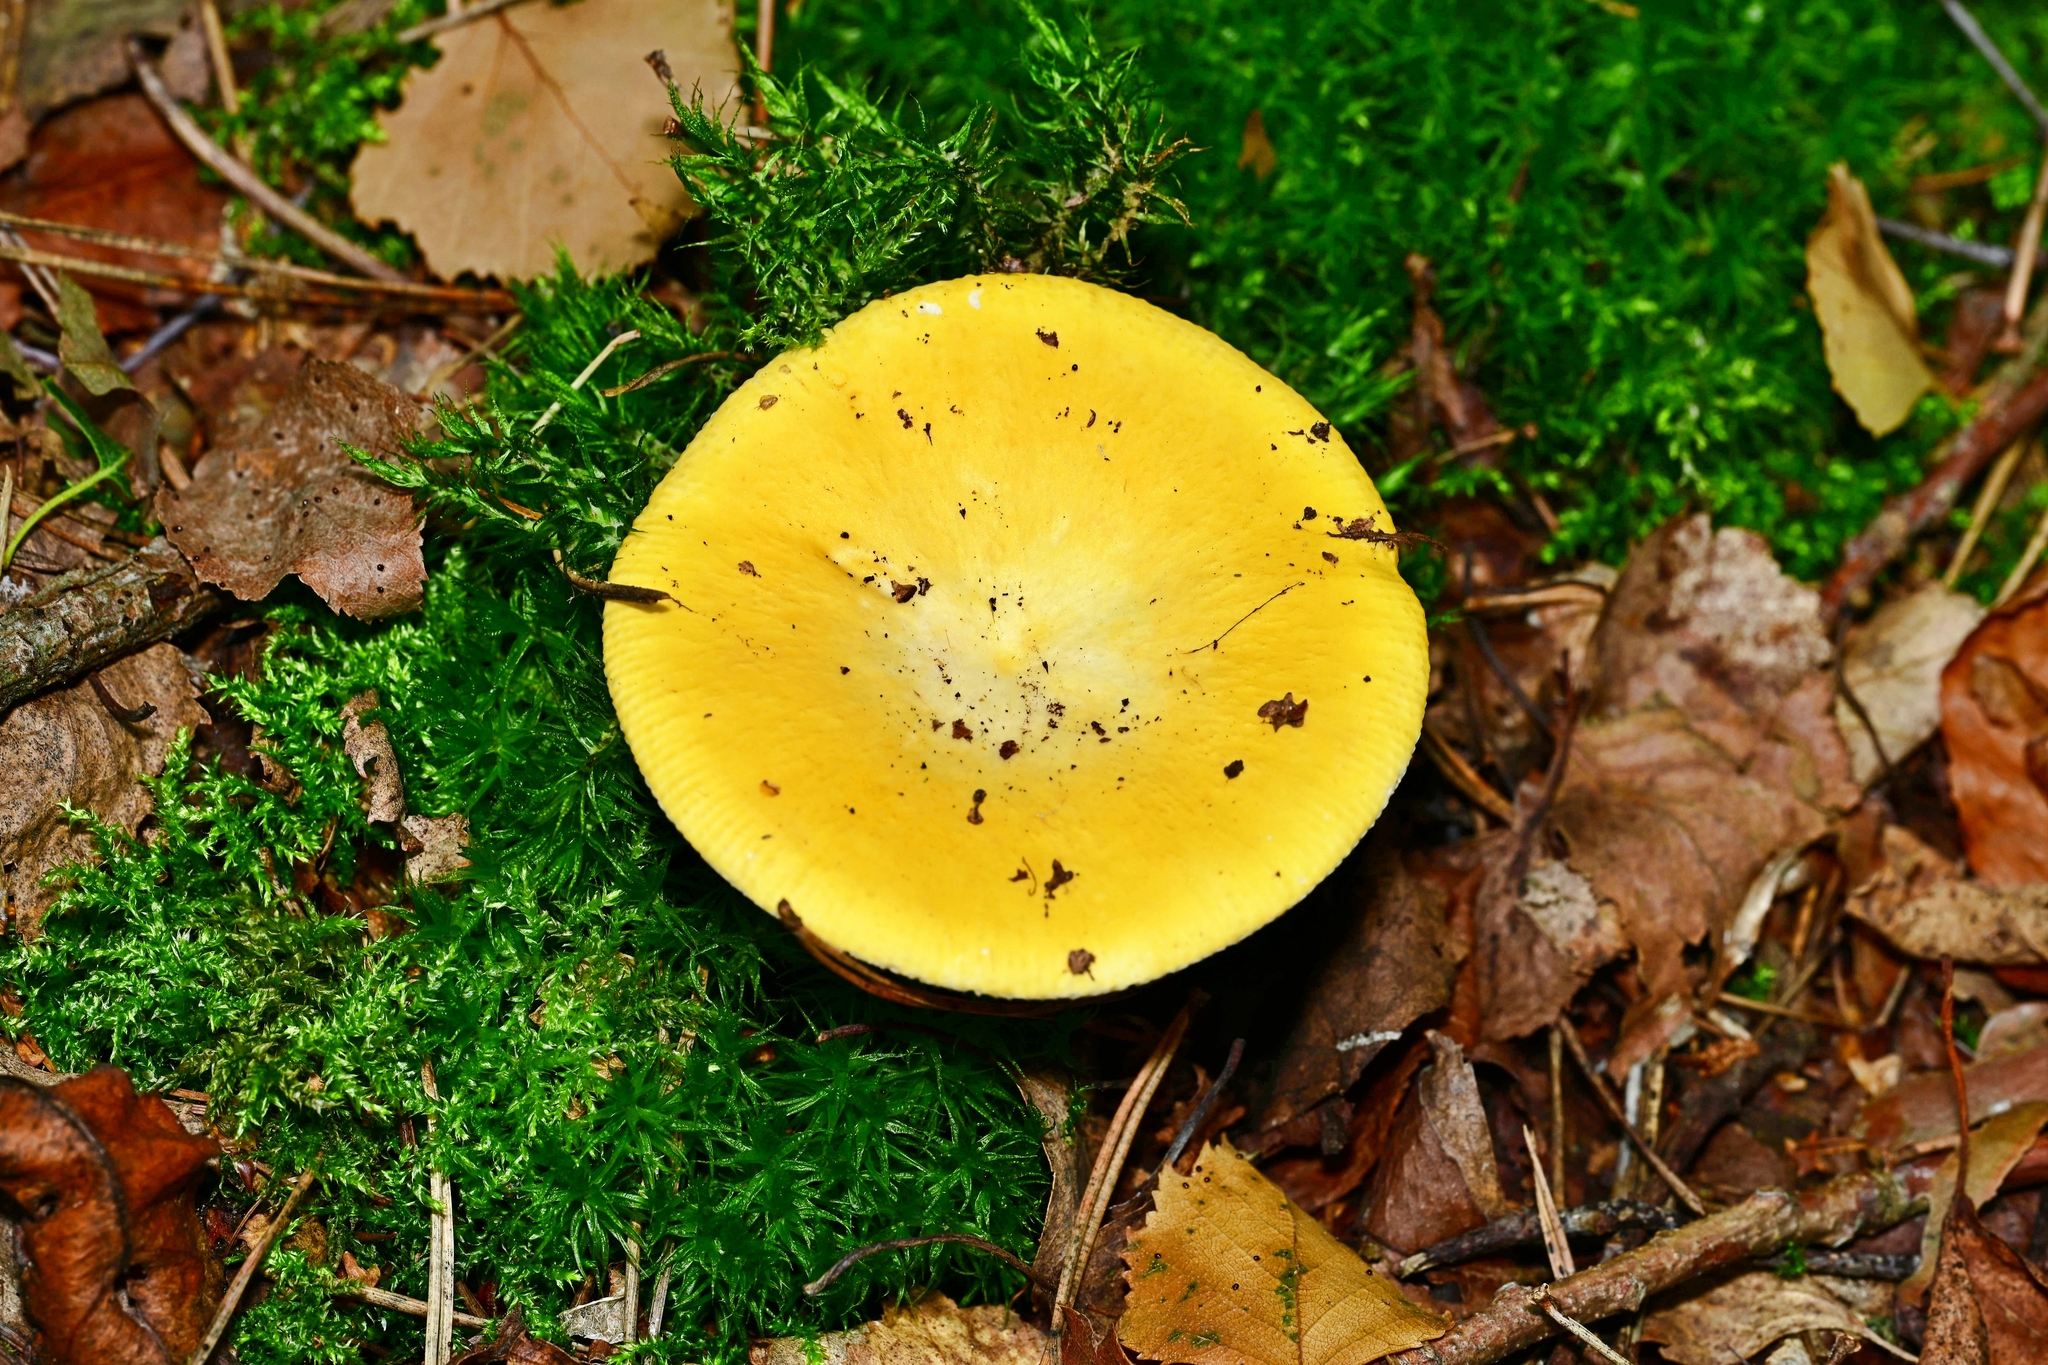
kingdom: Fungi
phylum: Basidiomycota
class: Agaricomycetes
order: Russulales
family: Russulaceae
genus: Russula
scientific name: Russula claroflava
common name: The yellow swamp brittlegill
